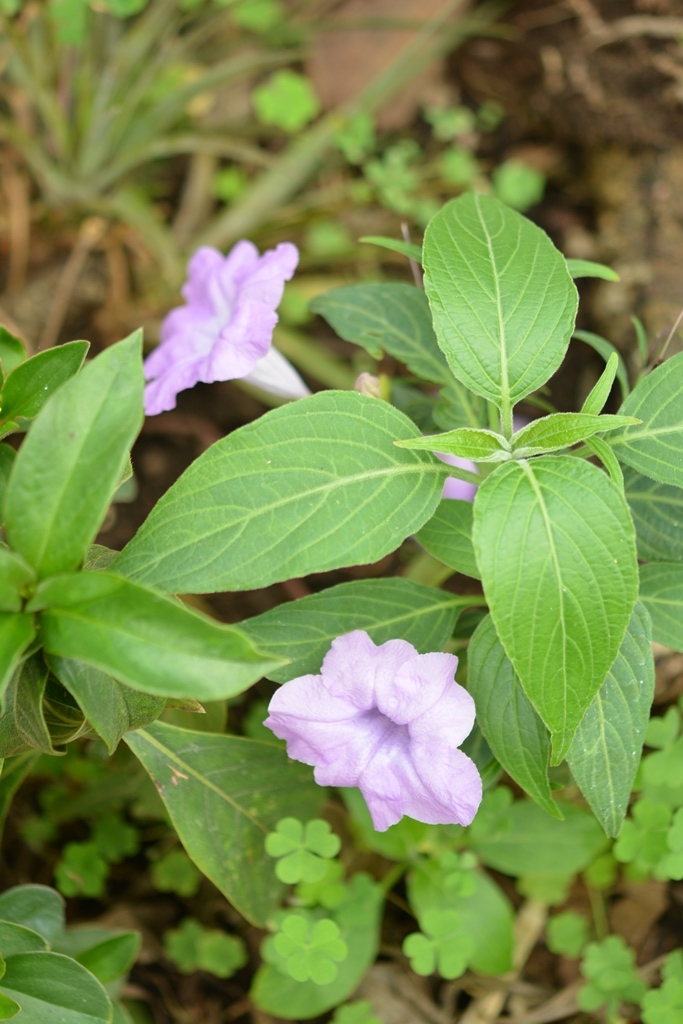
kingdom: Plantae
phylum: Tracheophyta
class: Magnoliopsida
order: Lamiales
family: Acanthaceae
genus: Ruellia
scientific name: Ruellia breedlovei
